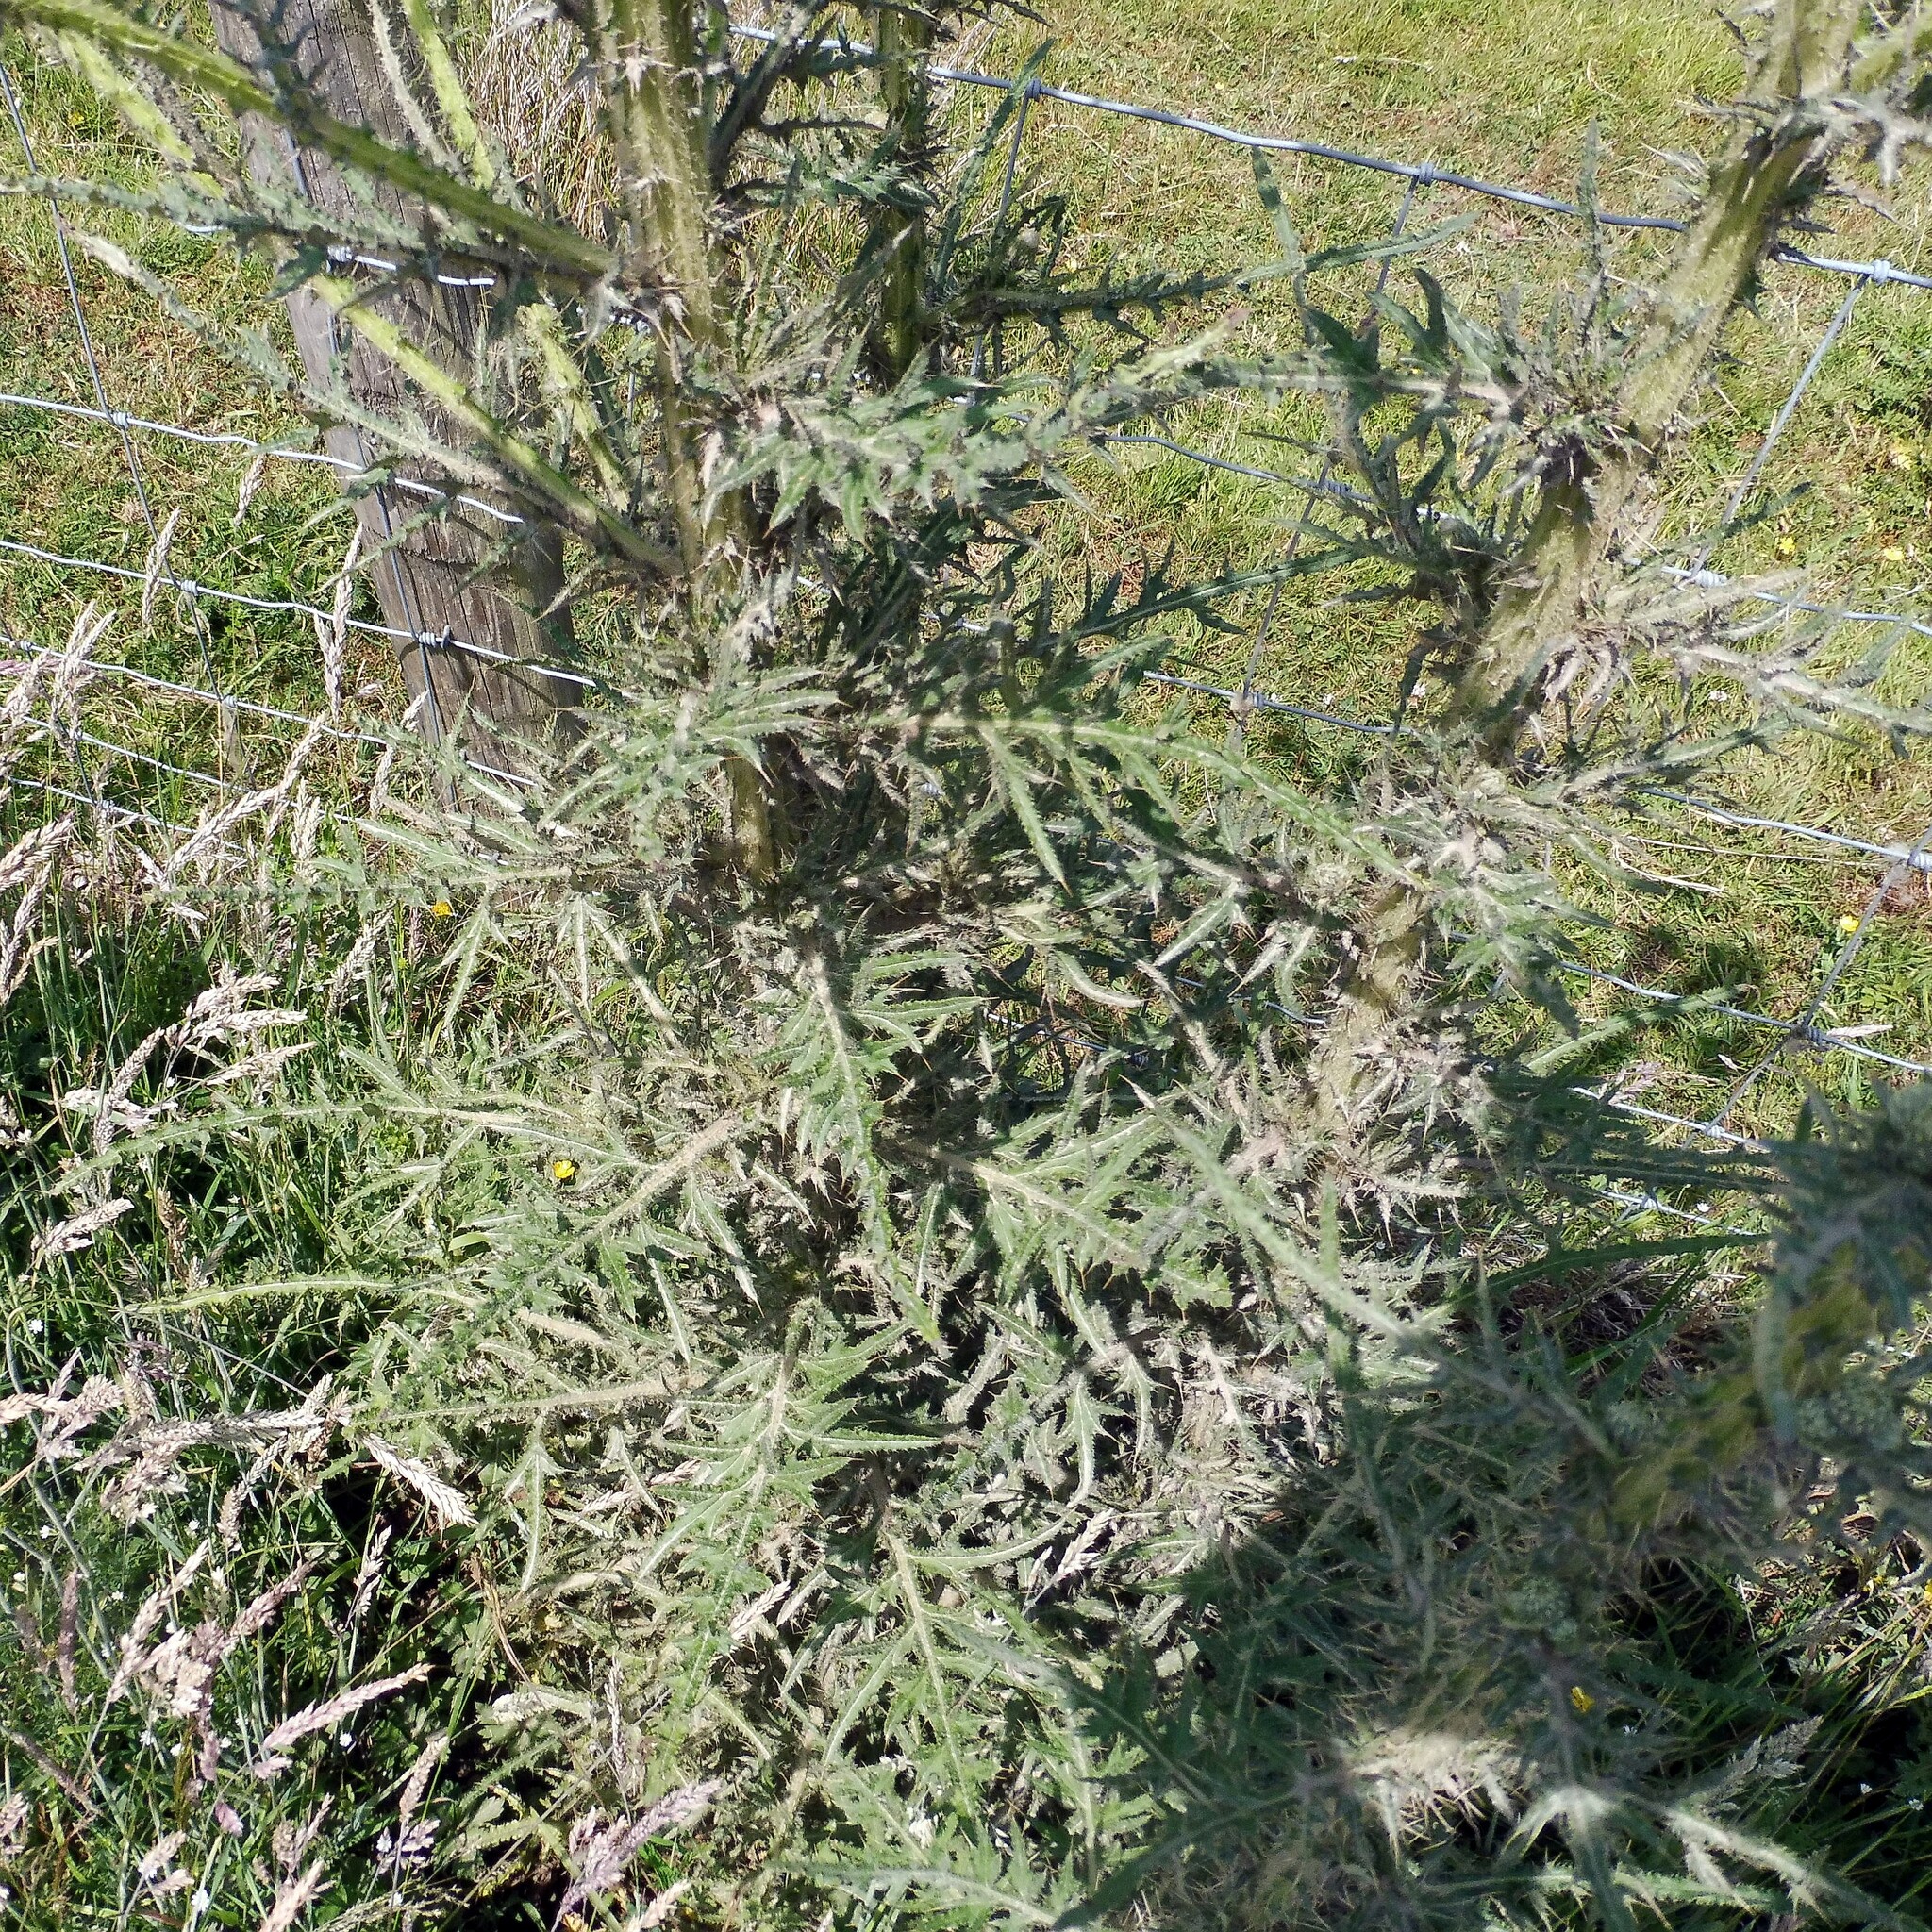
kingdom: Plantae
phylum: Tracheophyta
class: Magnoliopsida
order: Asterales
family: Asteraceae
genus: Cirsium
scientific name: Cirsium palustre
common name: Marsh thistle
